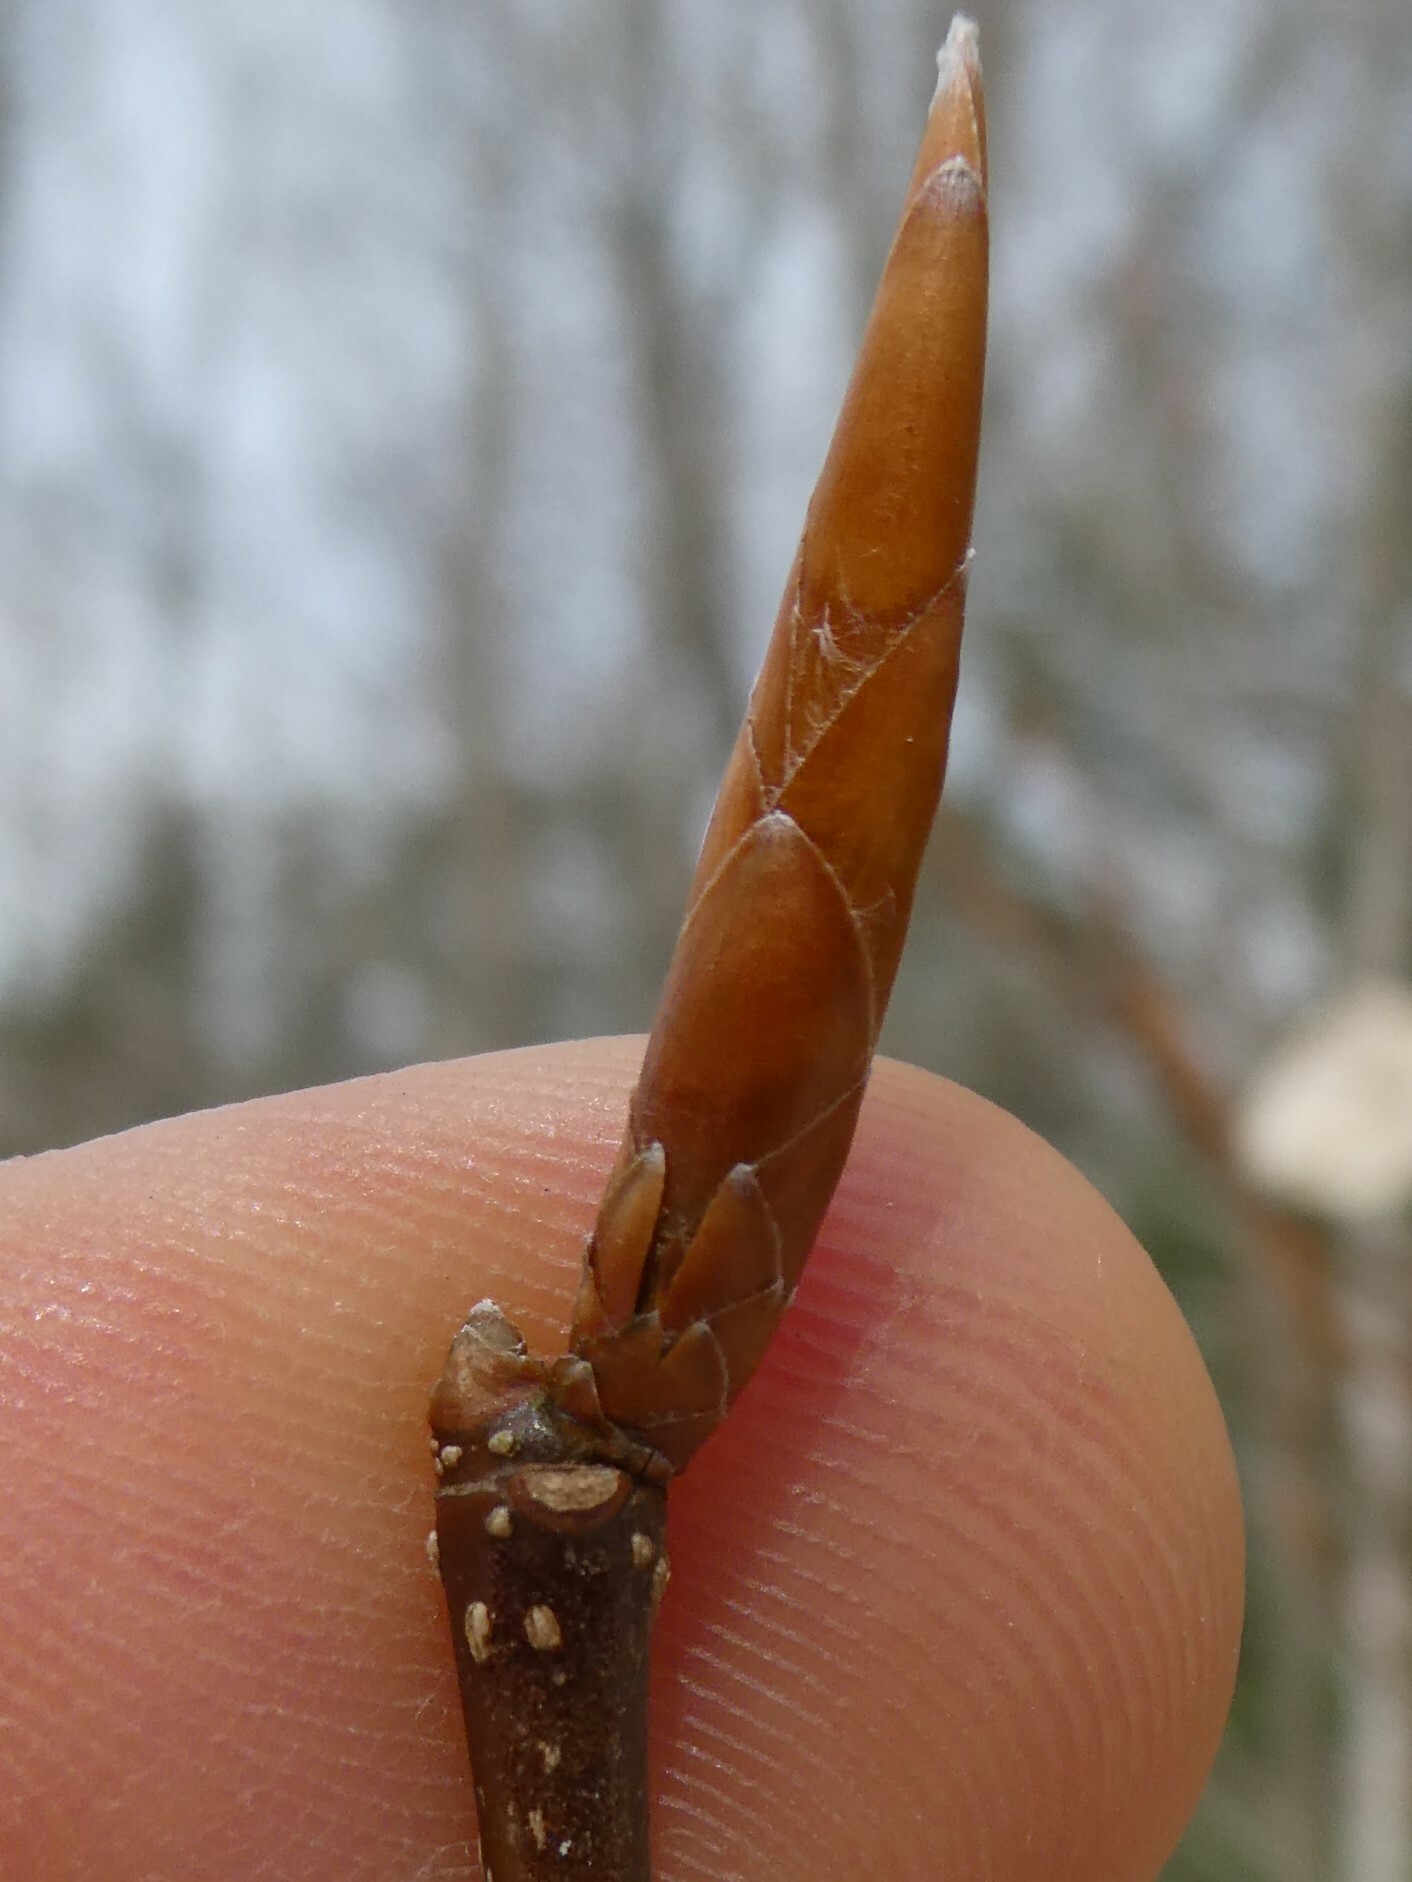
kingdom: Plantae
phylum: Tracheophyta
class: Magnoliopsida
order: Fagales
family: Fagaceae
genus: Fagus
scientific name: Fagus grandifolia
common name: American beech
